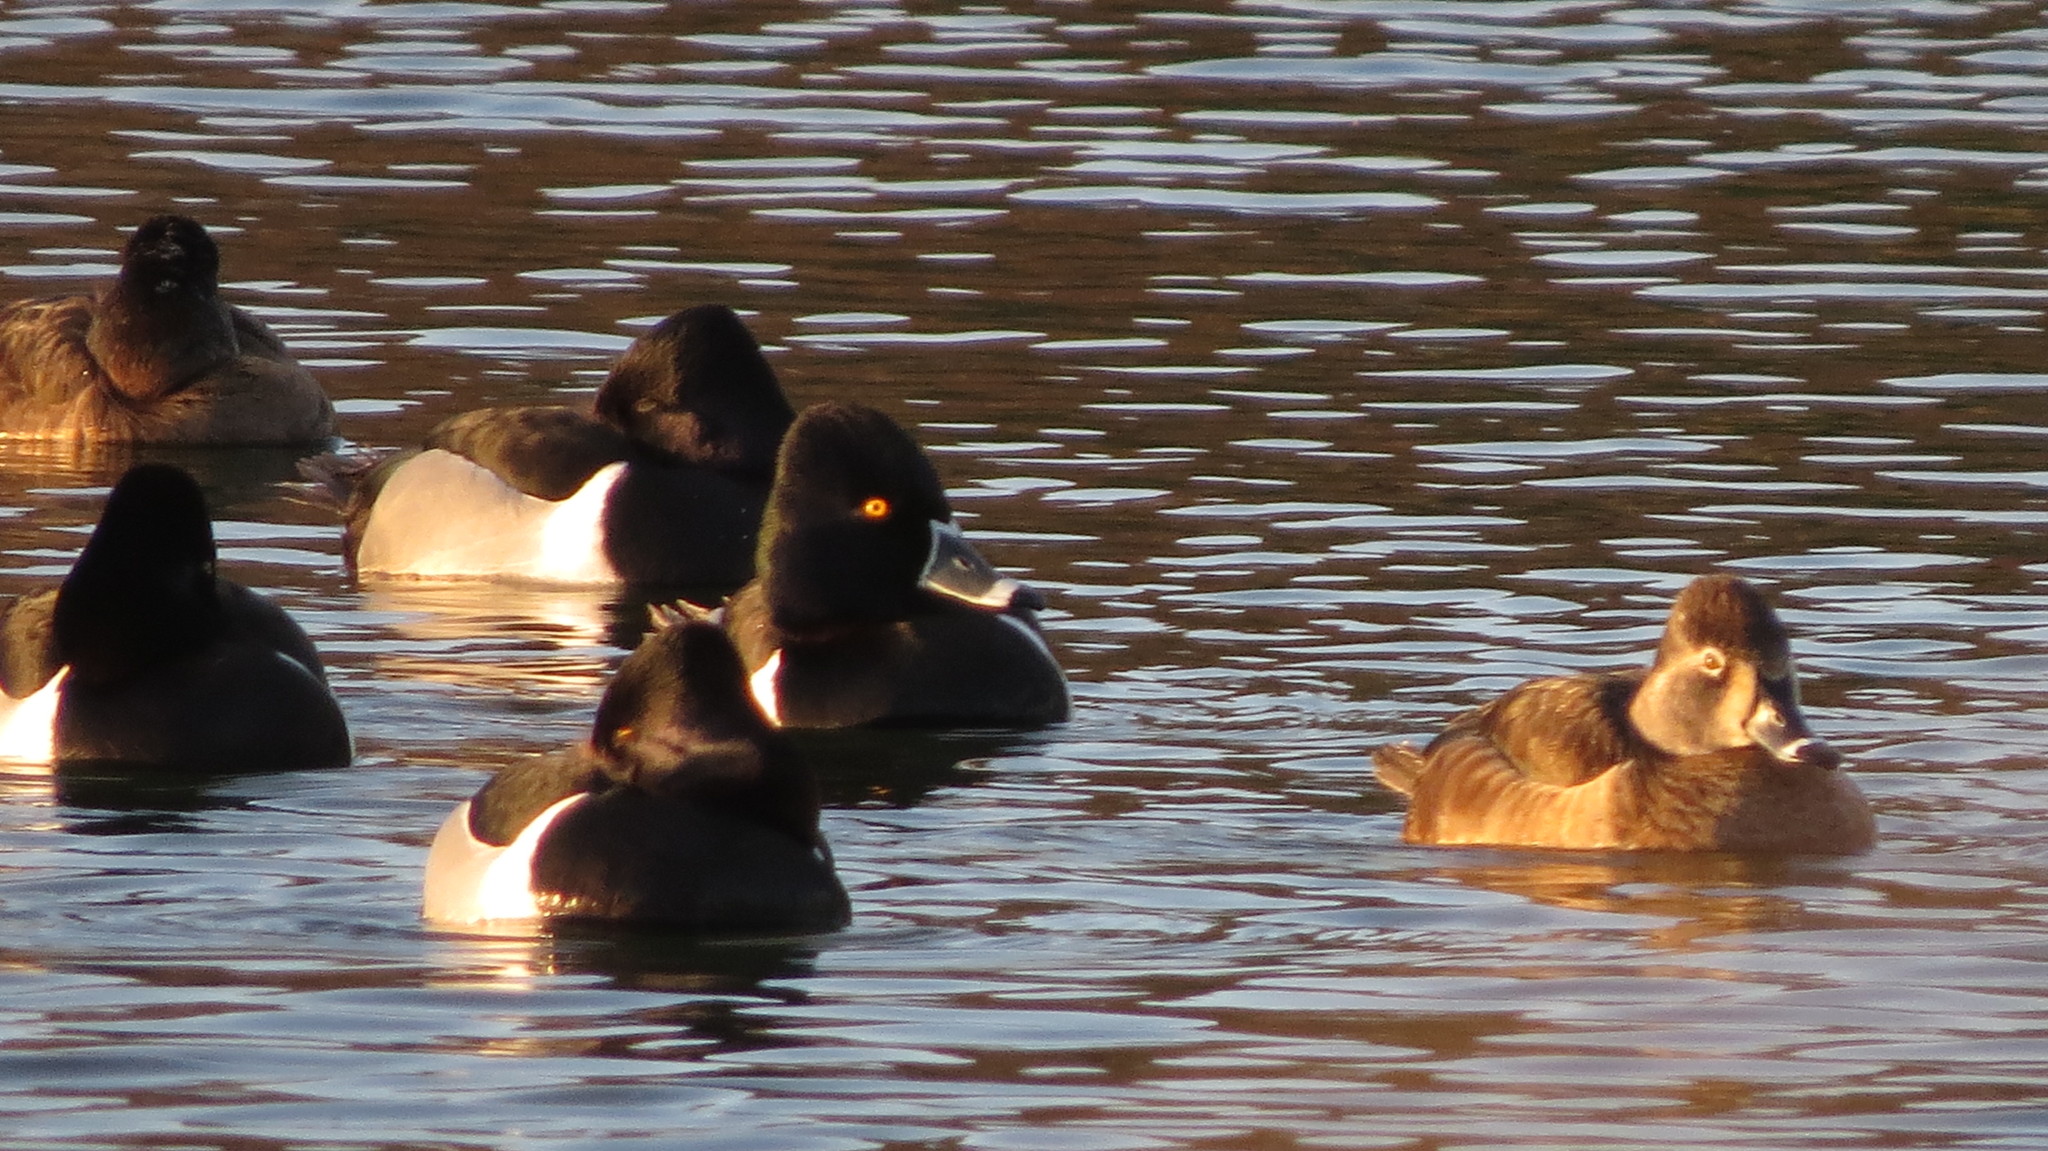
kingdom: Animalia
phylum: Chordata
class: Aves
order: Anseriformes
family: Anatidae
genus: Aythya
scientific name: Aythya collaris
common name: Ring-necked duck
